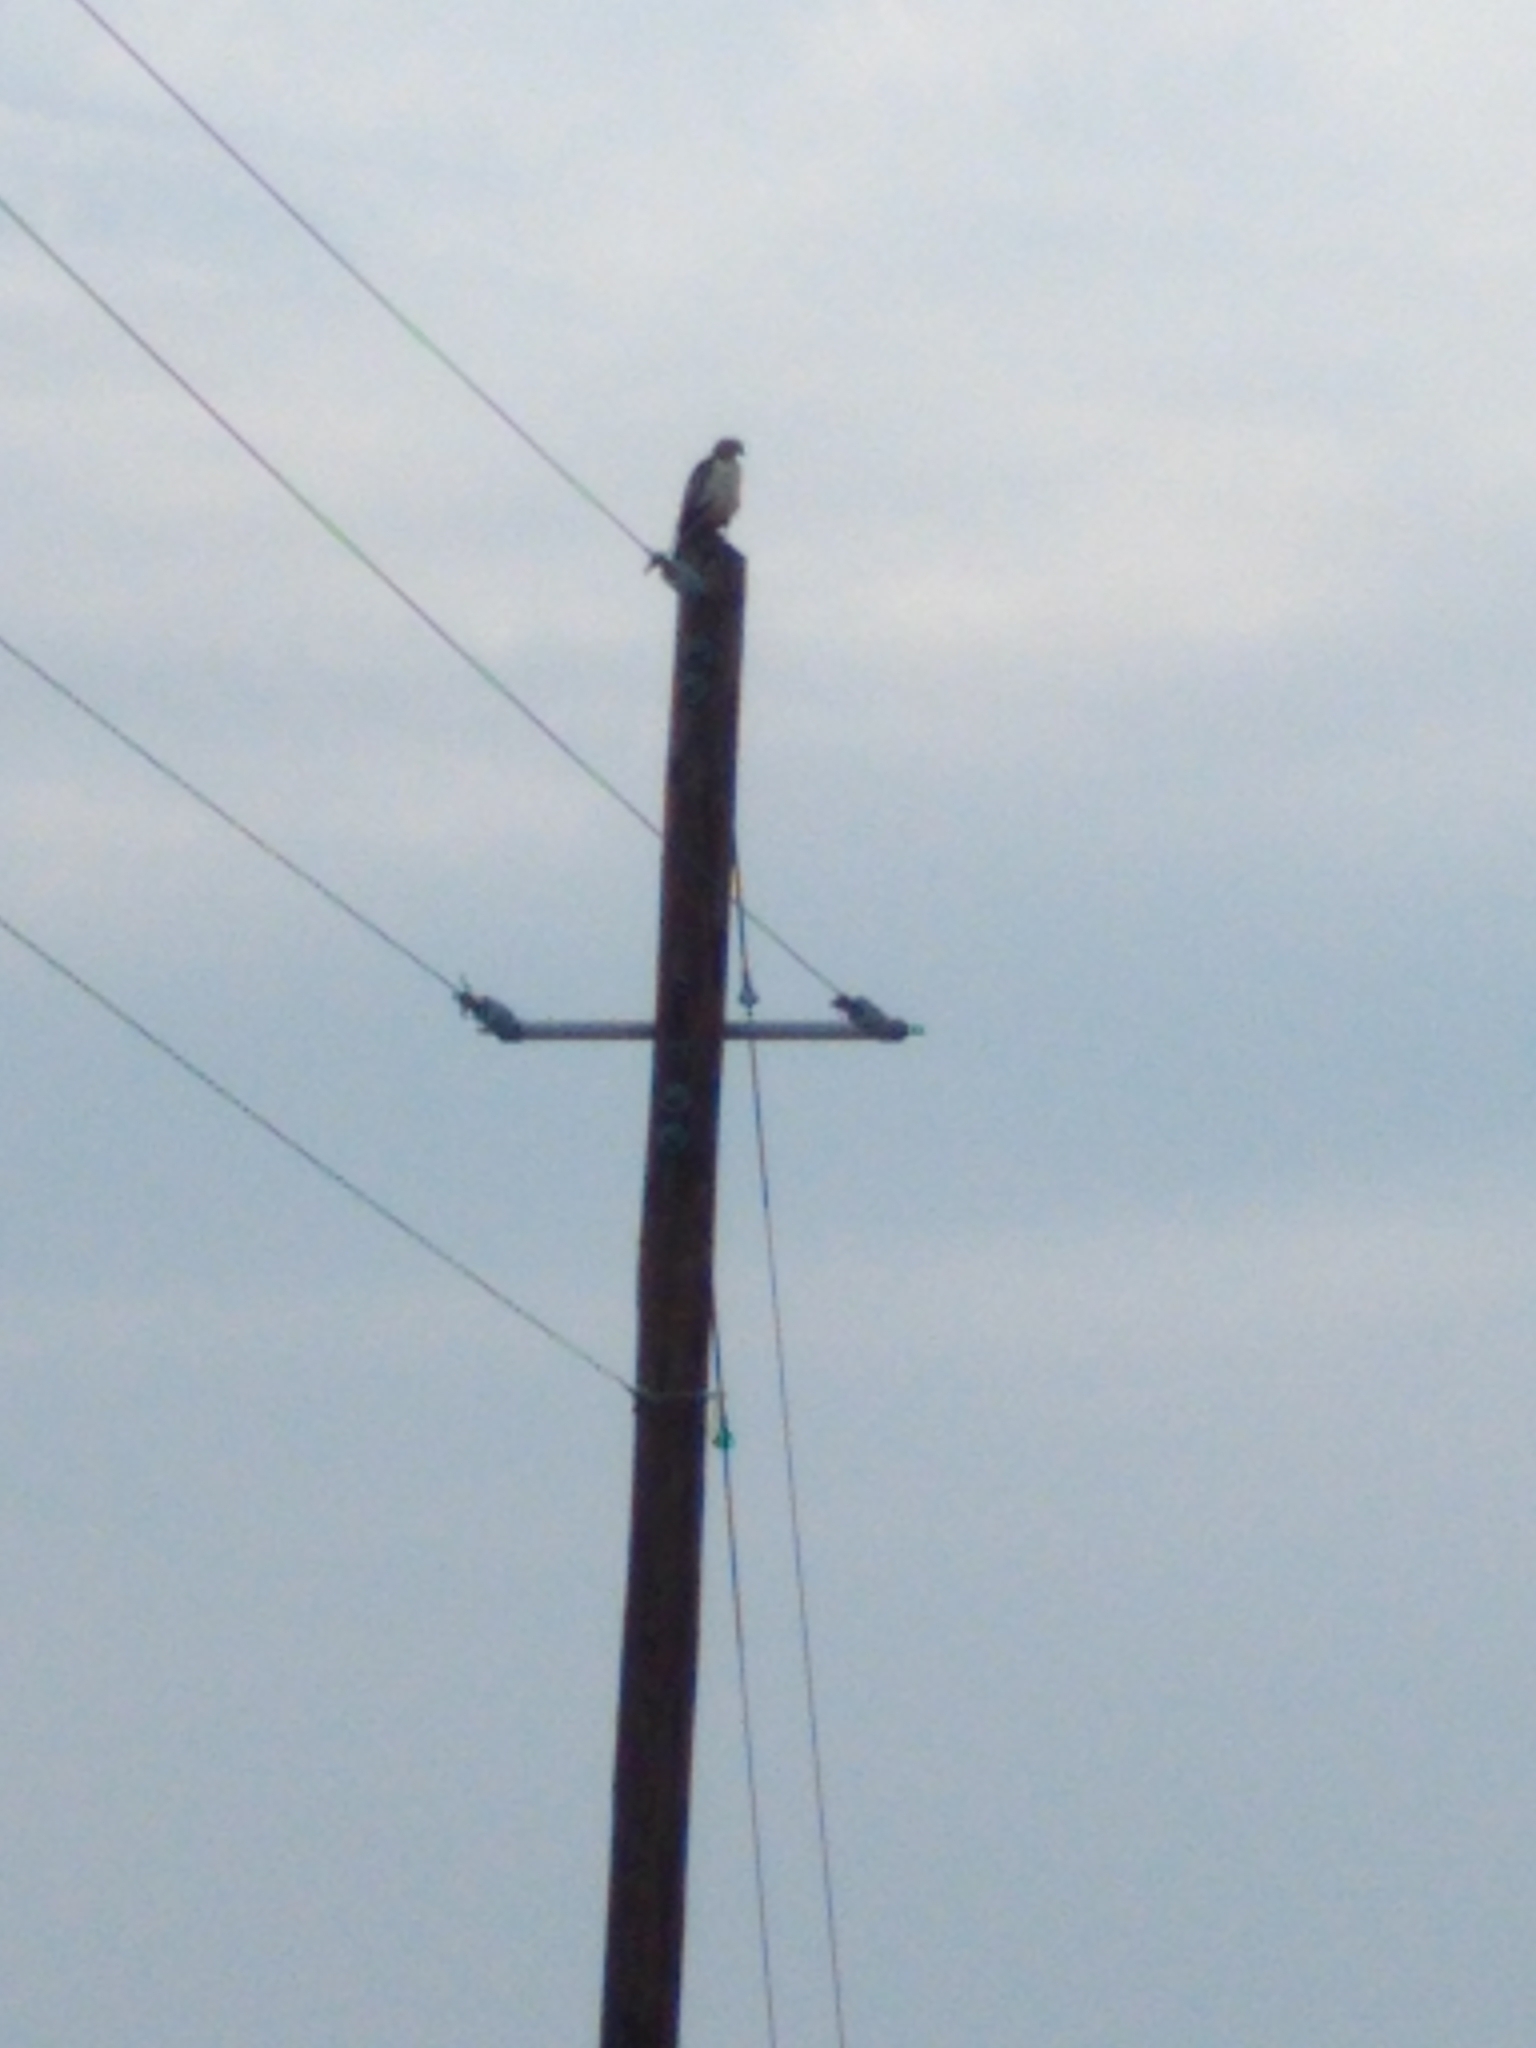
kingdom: Animalia
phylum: Chordata
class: Aves
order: Accipitriformes
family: Accipitridae
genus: Buteo
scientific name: Buteo jamaicensis
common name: Red-tailed hawk
